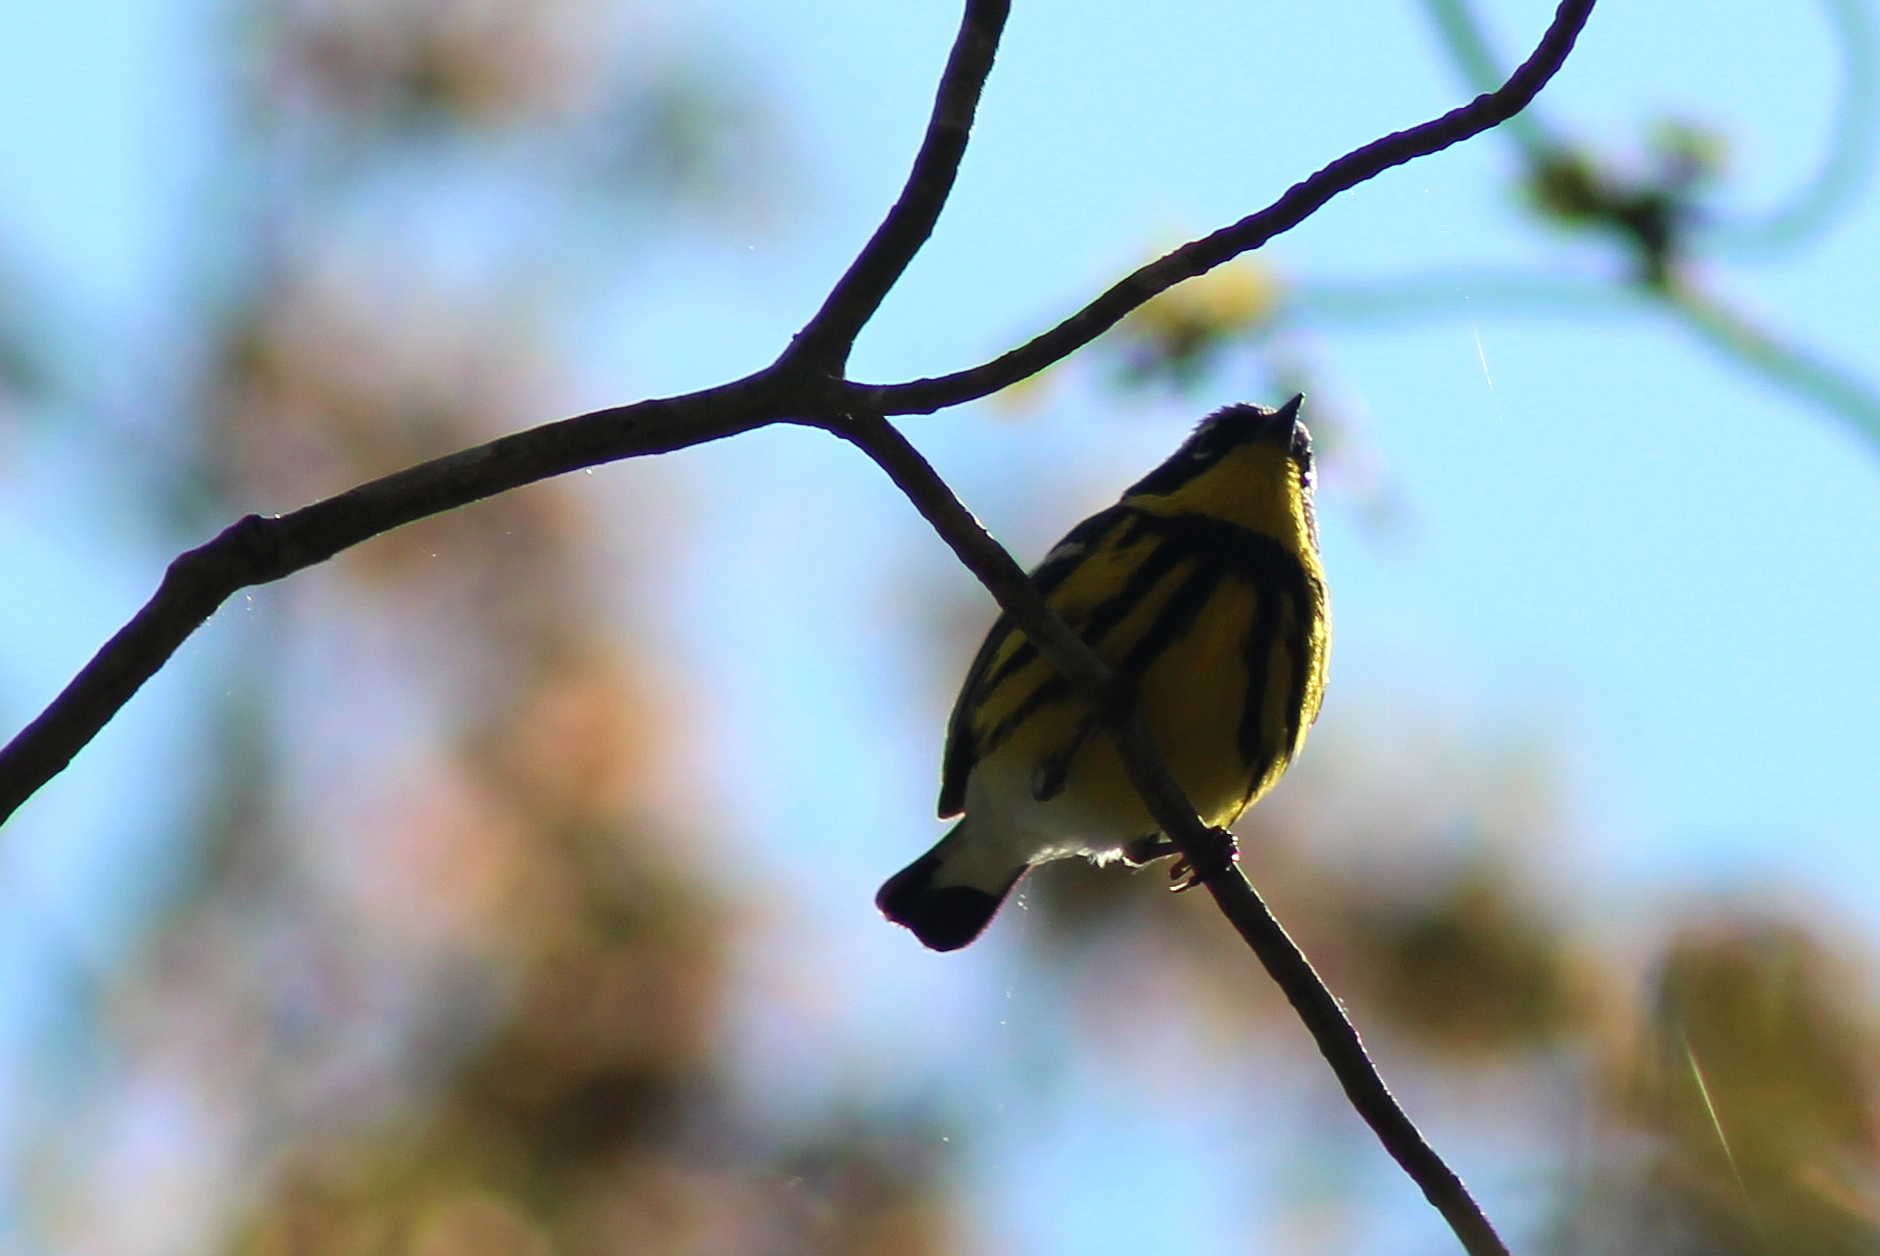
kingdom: Animalia
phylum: Chordata
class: Aves
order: Passeriformes
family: Parulidae
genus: Setophaga
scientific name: Setophaga magnolia
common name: Magnolia warbler
